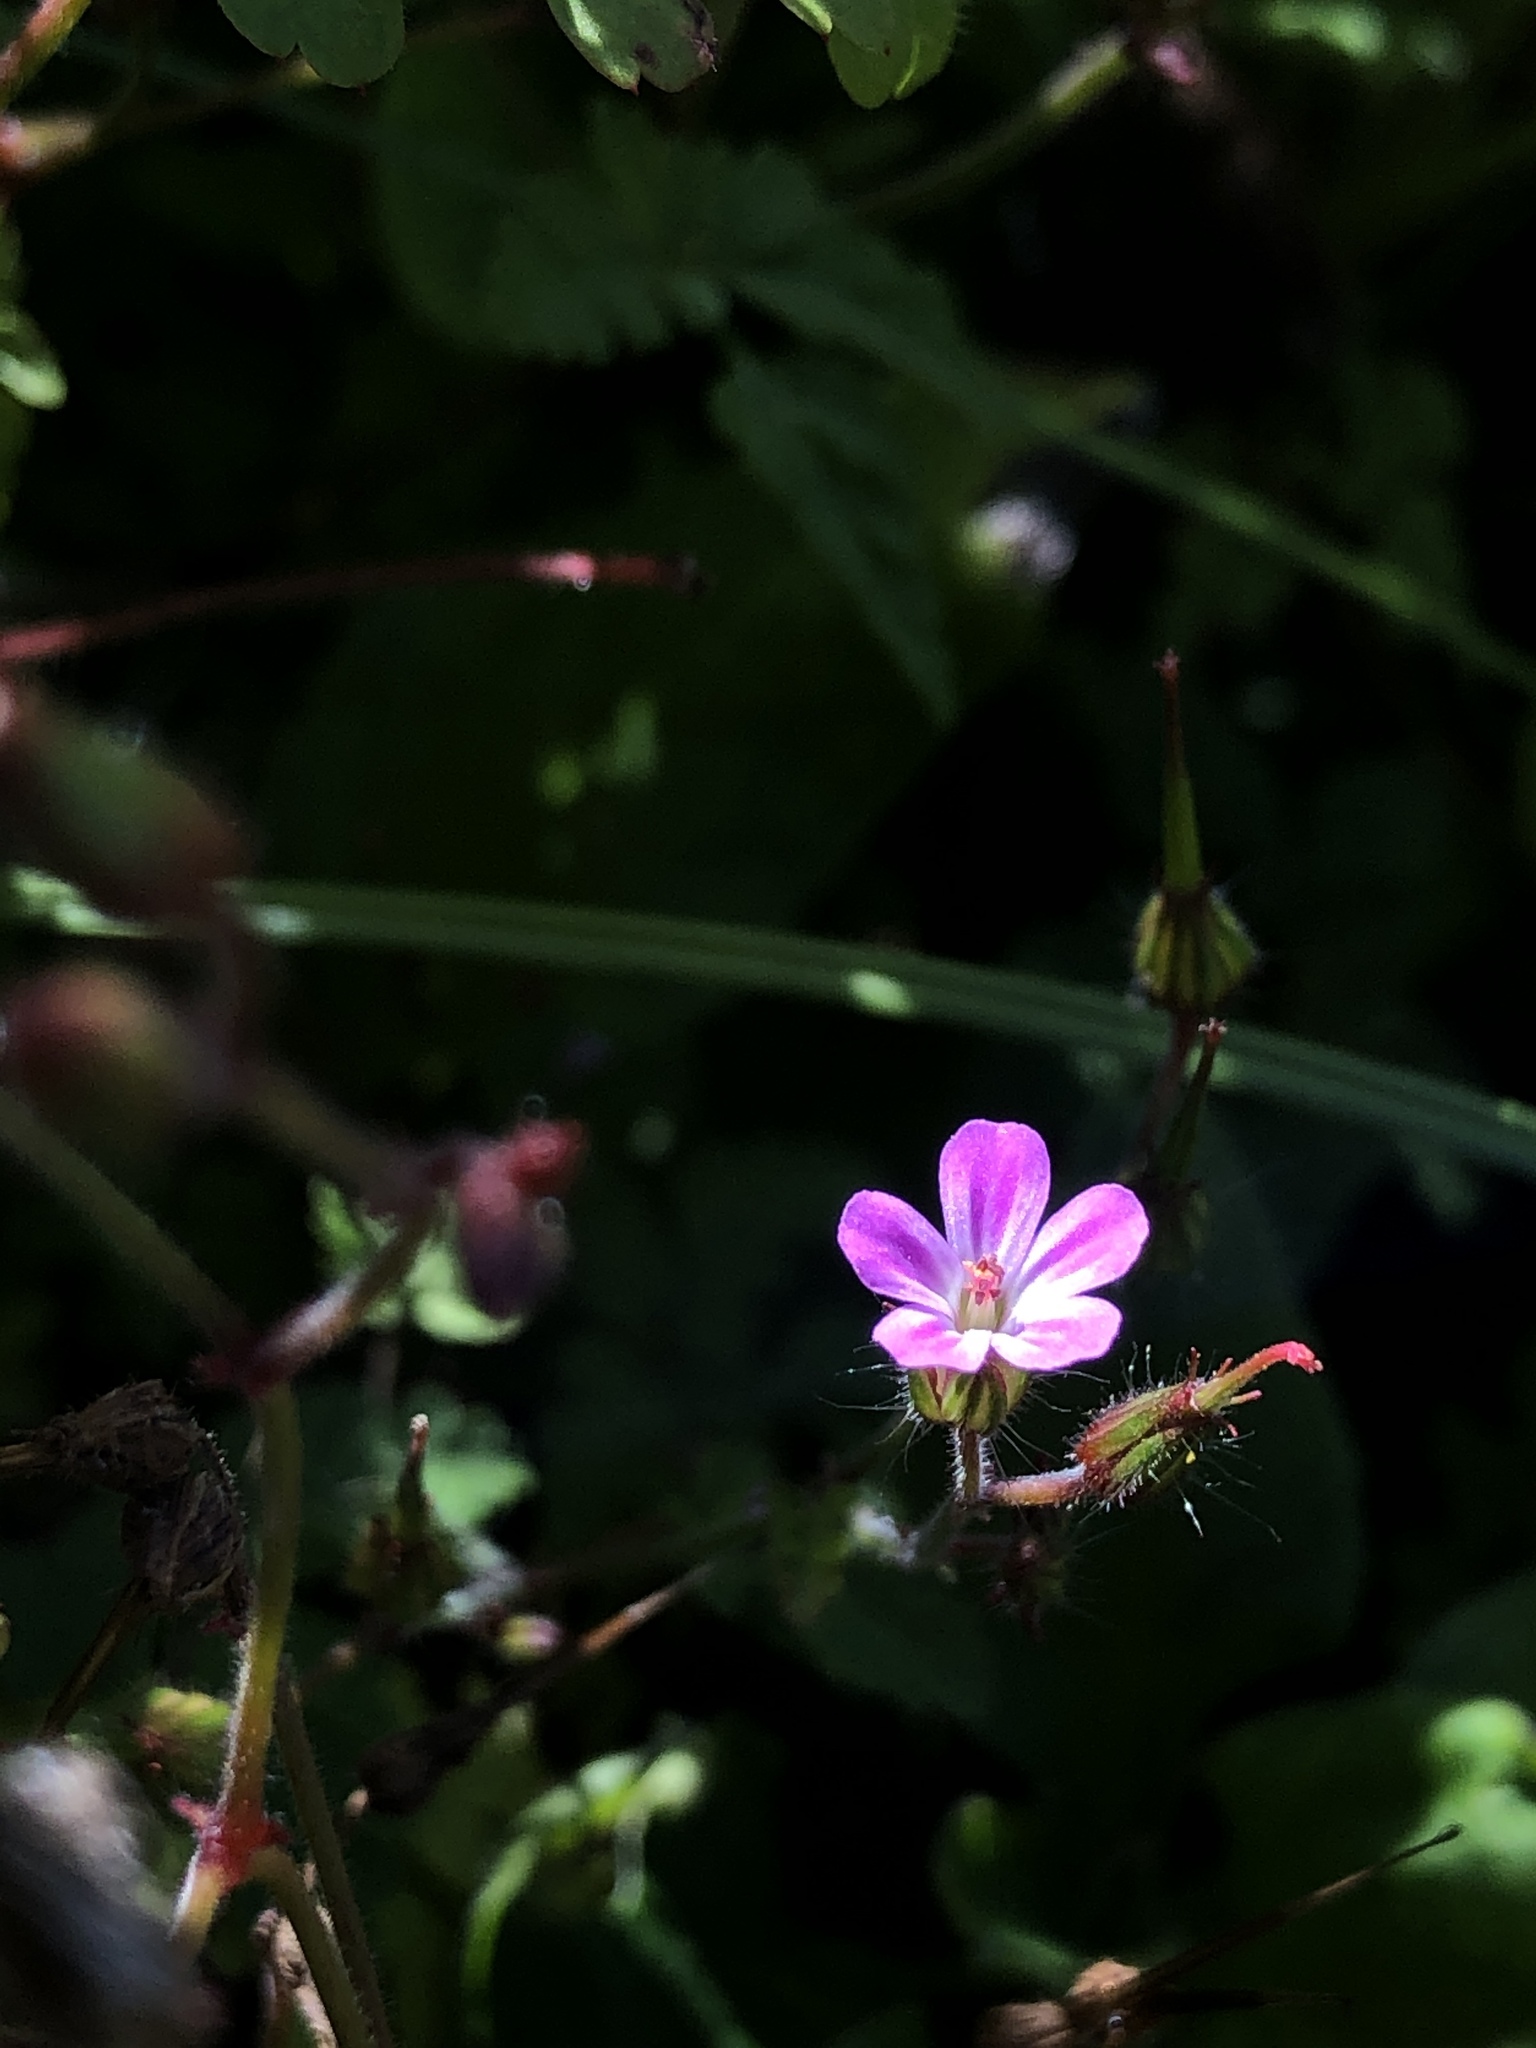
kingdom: Plantae
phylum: Tracheophyta
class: Magnoliopsida
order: Geraniales
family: Geraniaceae
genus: Geranium
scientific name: Geranium robertianum
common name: Herb-robert
